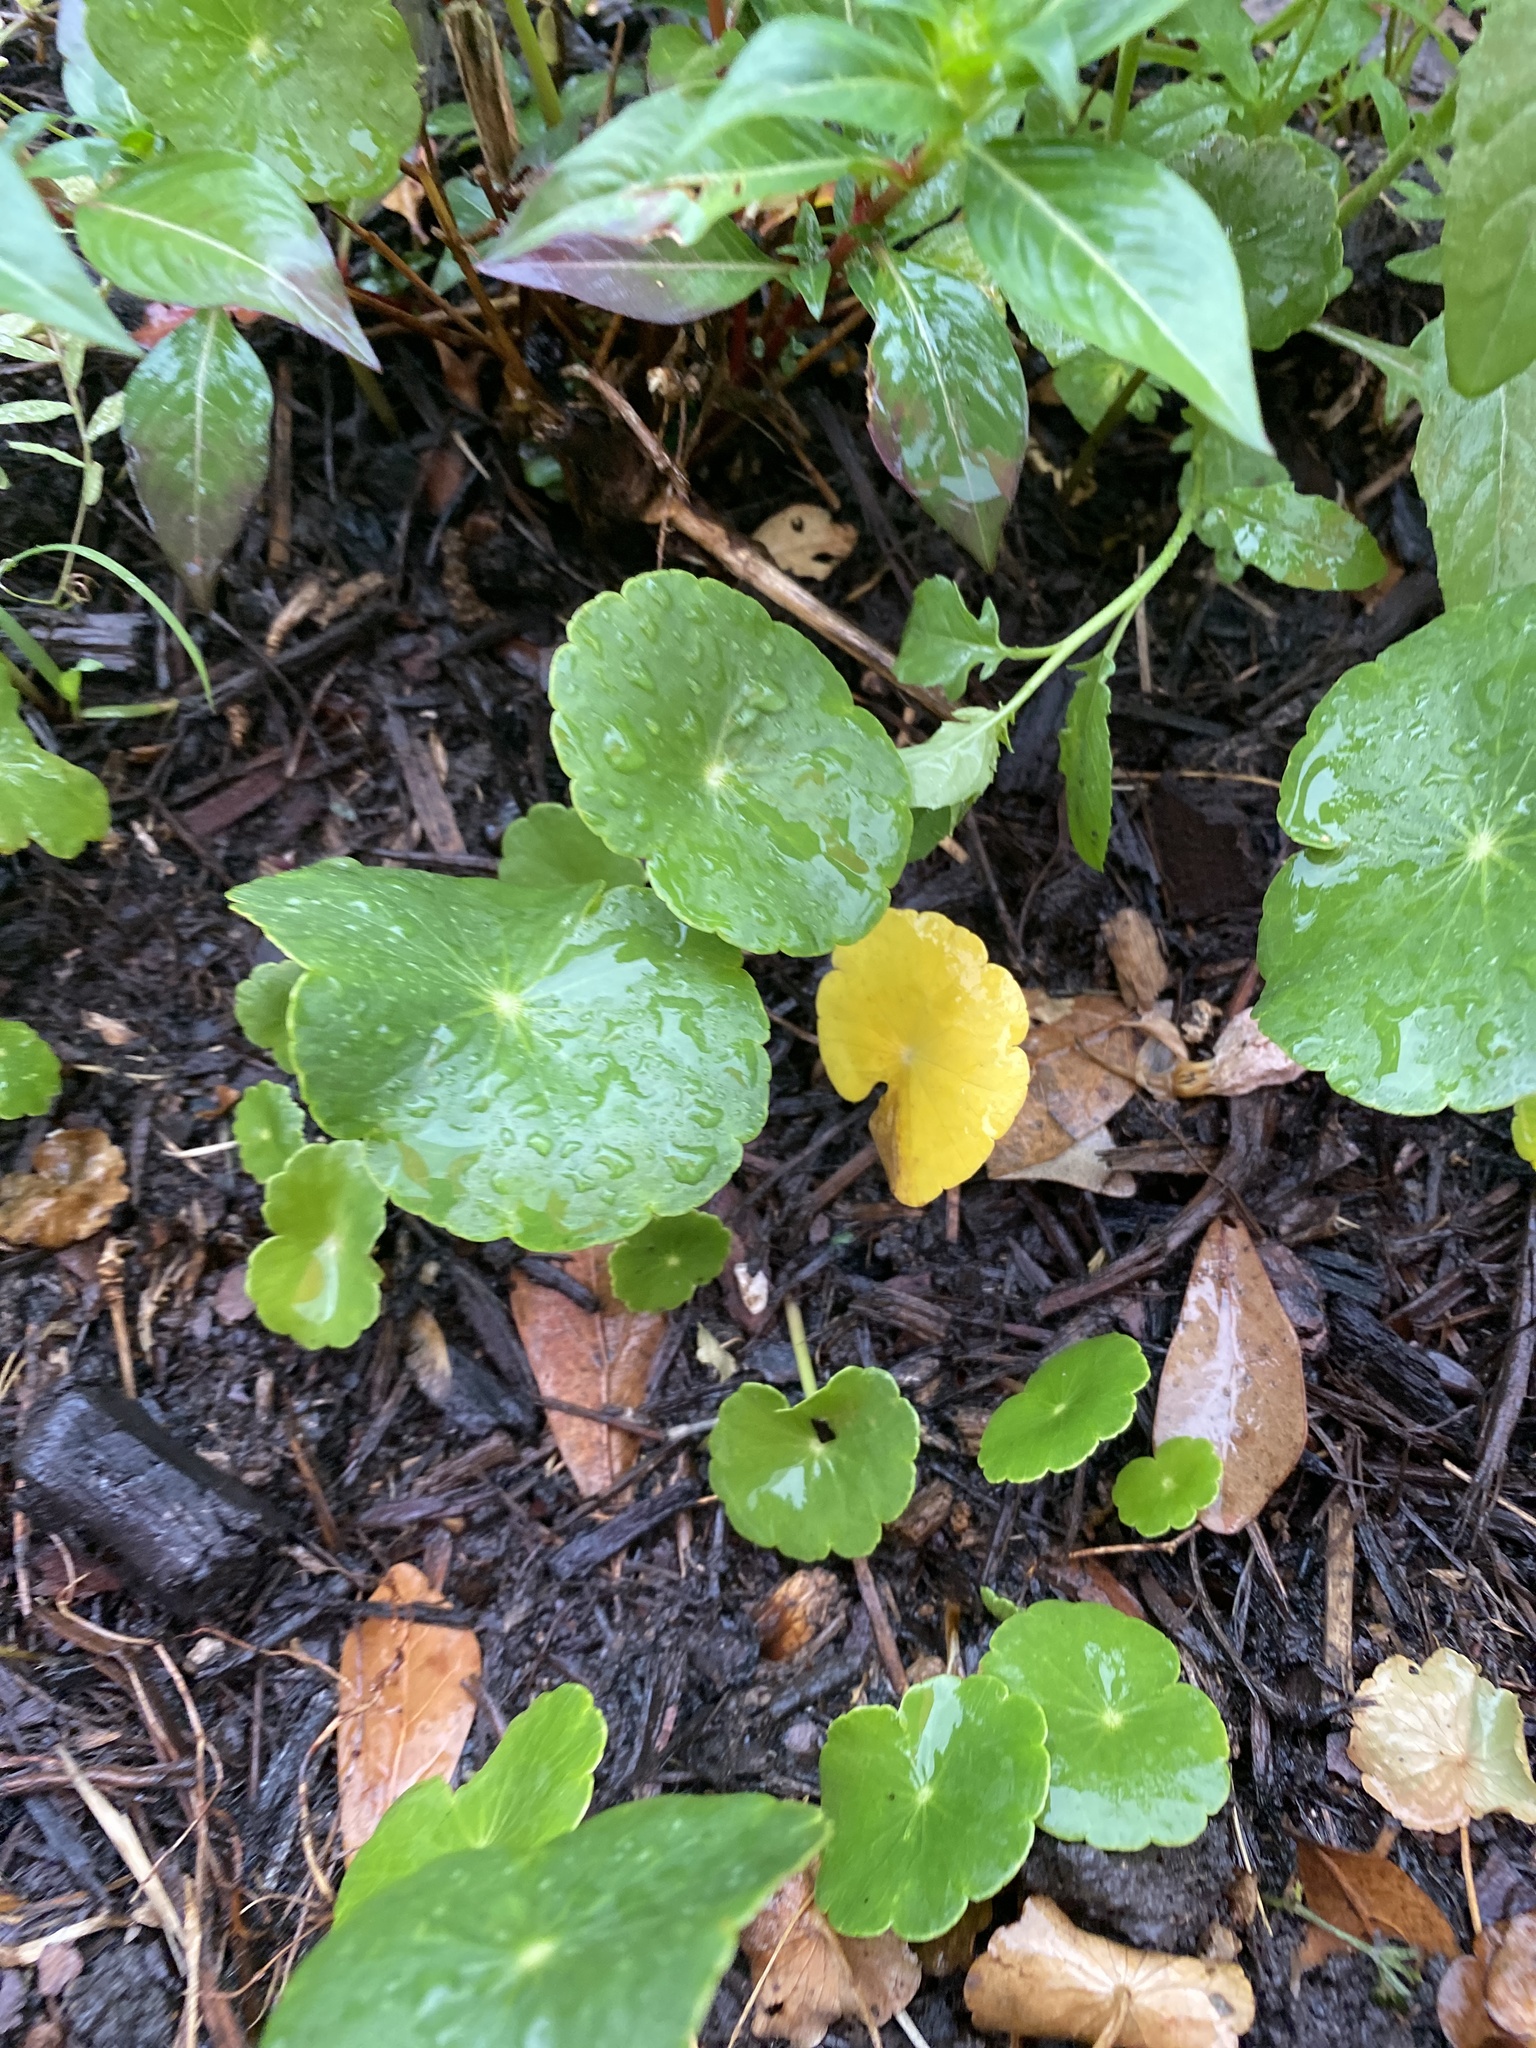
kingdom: Plantae
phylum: Tracheophyta
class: Magnoliopsida
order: Apiales
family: Araliaceae
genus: Hydrocotyle
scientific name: Hydrocotyle umbellata
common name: Water pennywort
